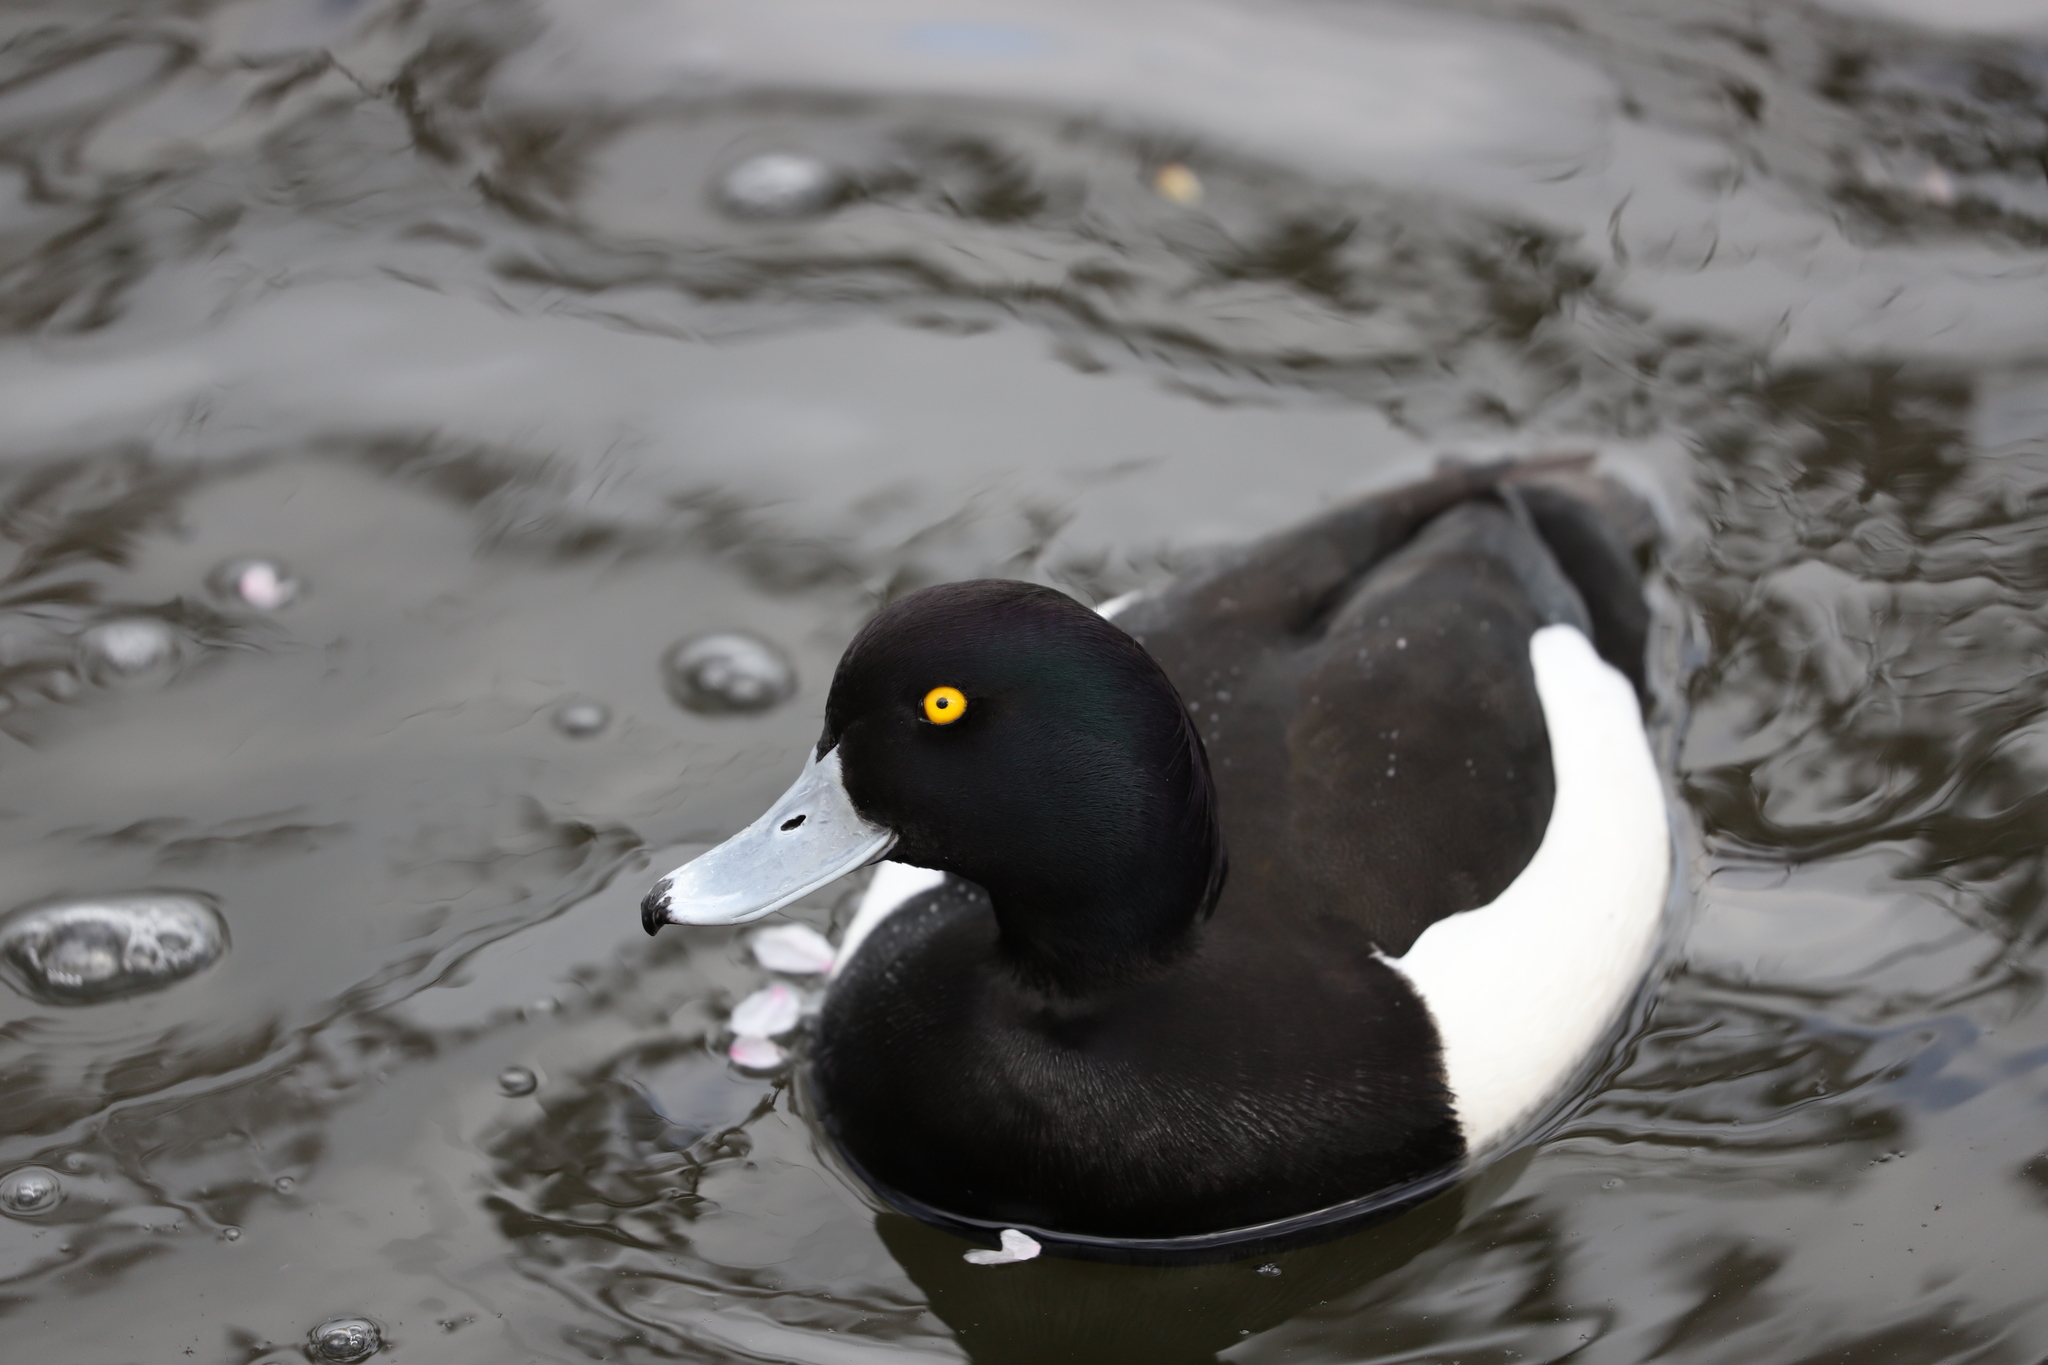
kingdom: Animalia
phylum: Chordata
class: Aves
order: Anseriformes
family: Anatidae
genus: Aythya
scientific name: Aythya fuligula
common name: Tufted duck
